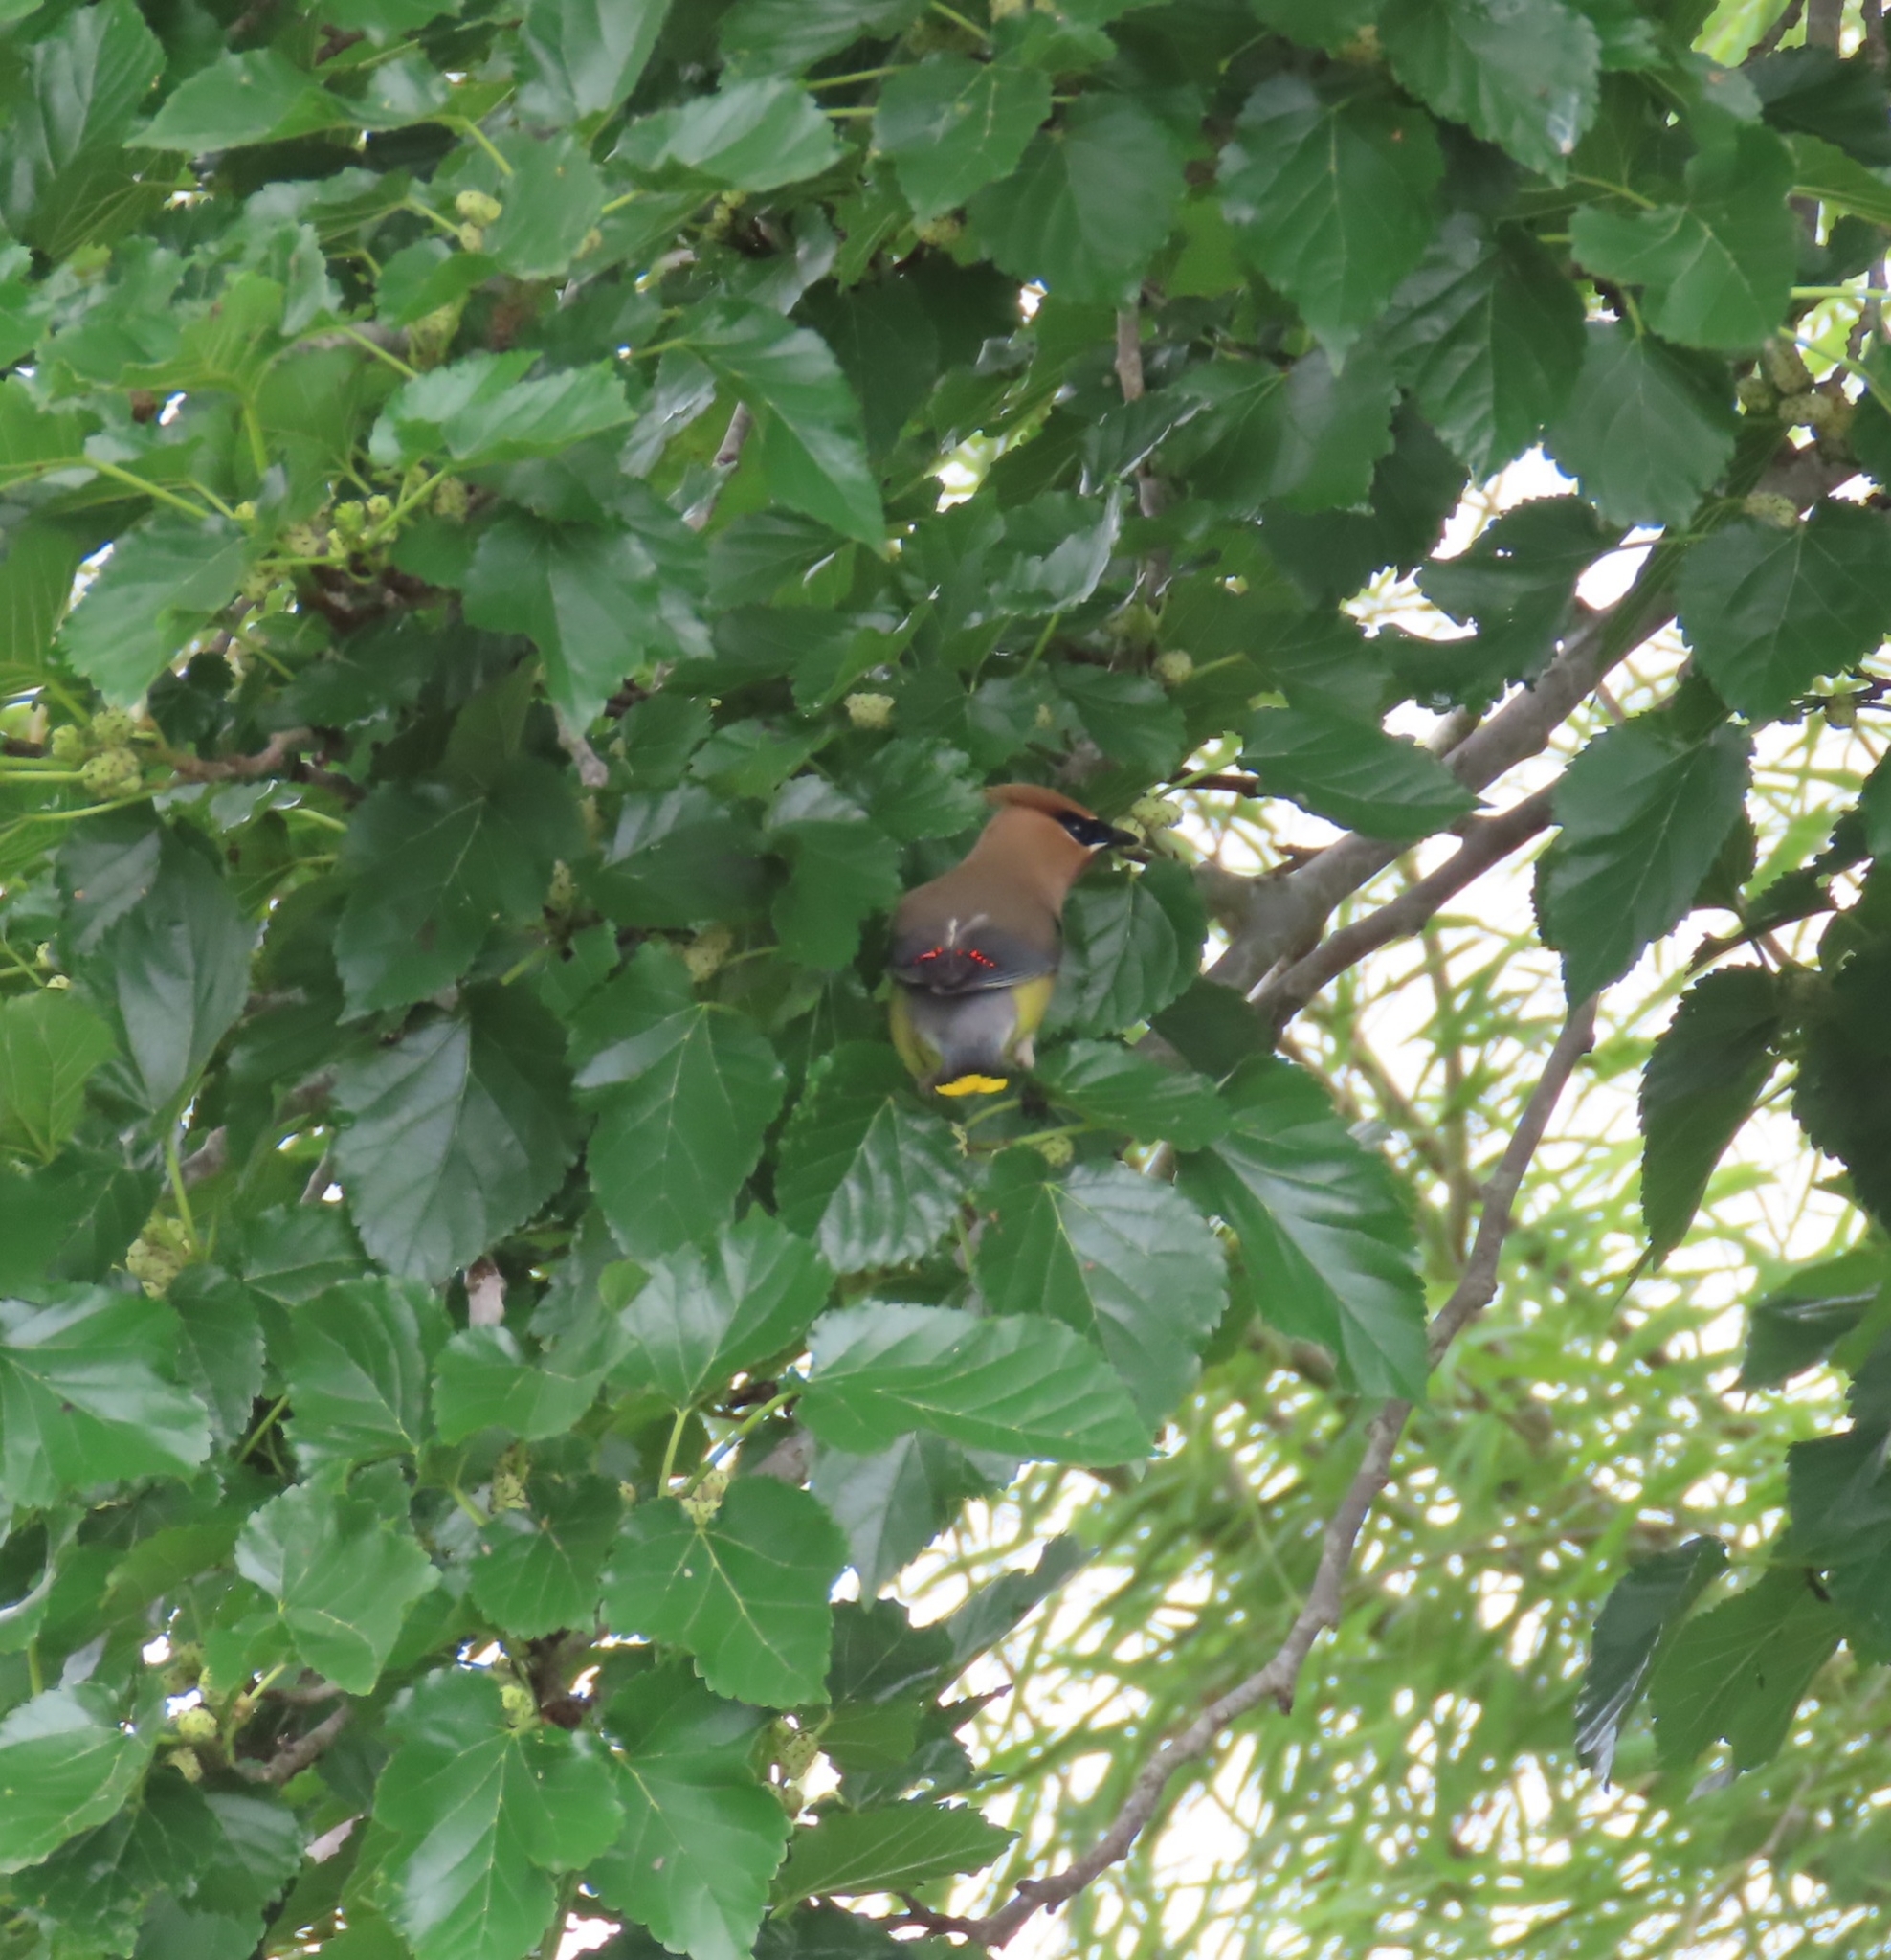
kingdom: Animalia
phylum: Chordata
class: Aves
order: Passeriformes
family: Bombycillidae
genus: Bombycilla
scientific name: Bombycilla cedrorum
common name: Cedar waxwing
